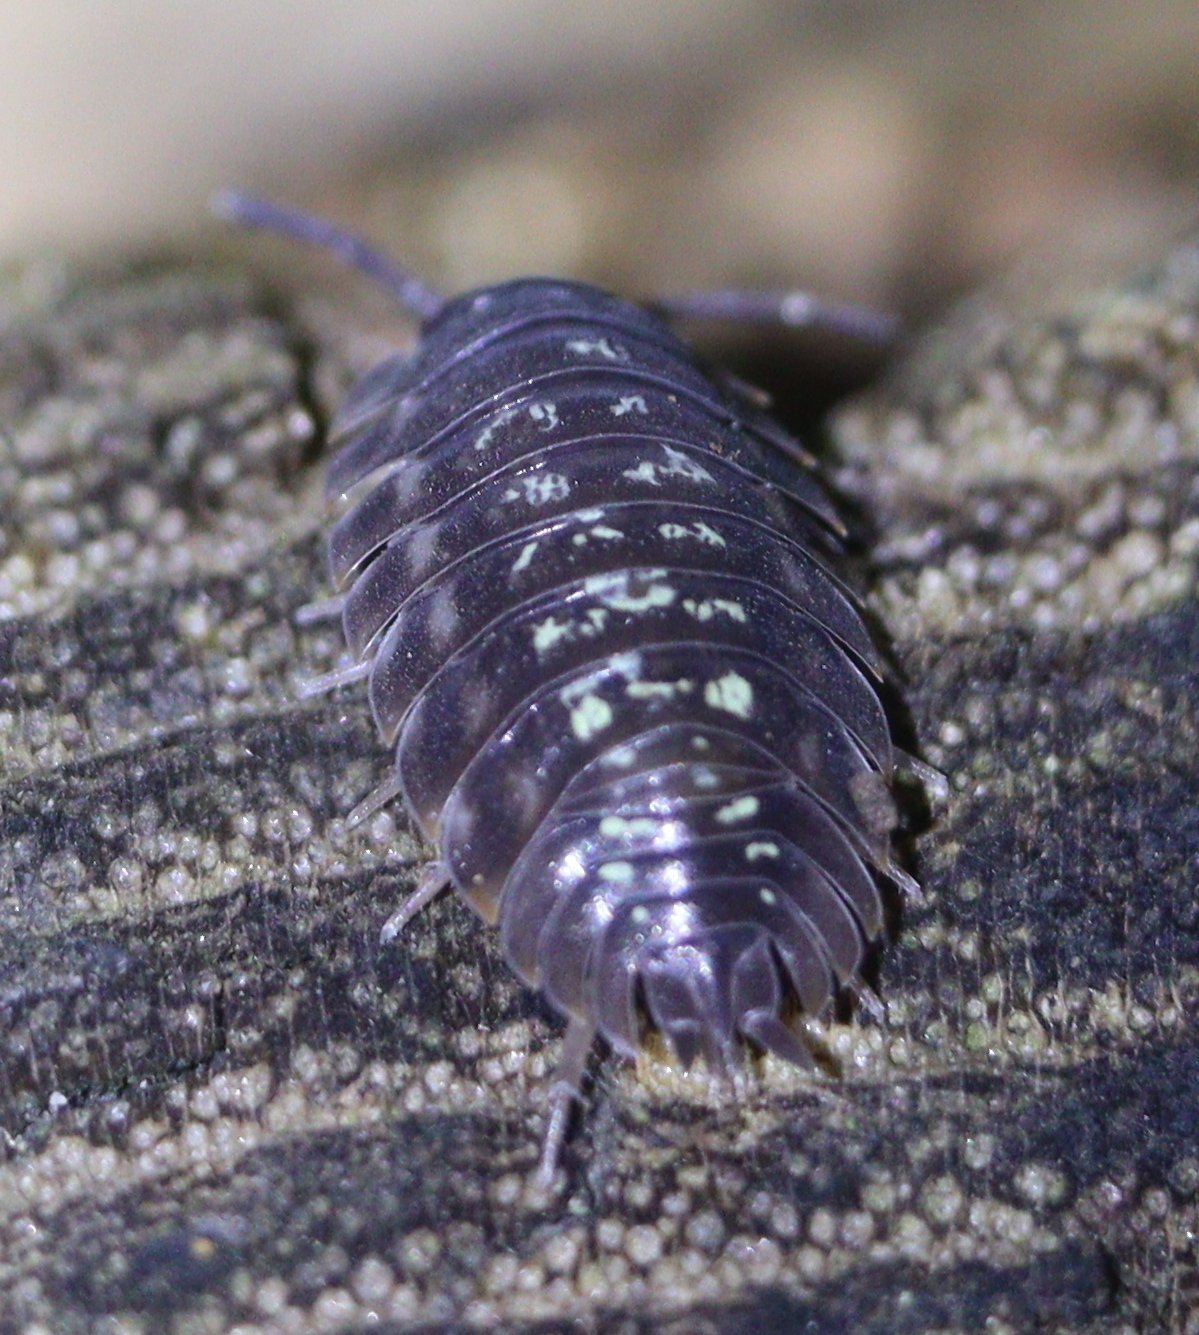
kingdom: Animalia
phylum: Arthropoda
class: Malacostraca
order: Isopoda
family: Oniscidae
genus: Oniscus
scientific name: Oniscus asellus
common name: Common shiny woodlouse
